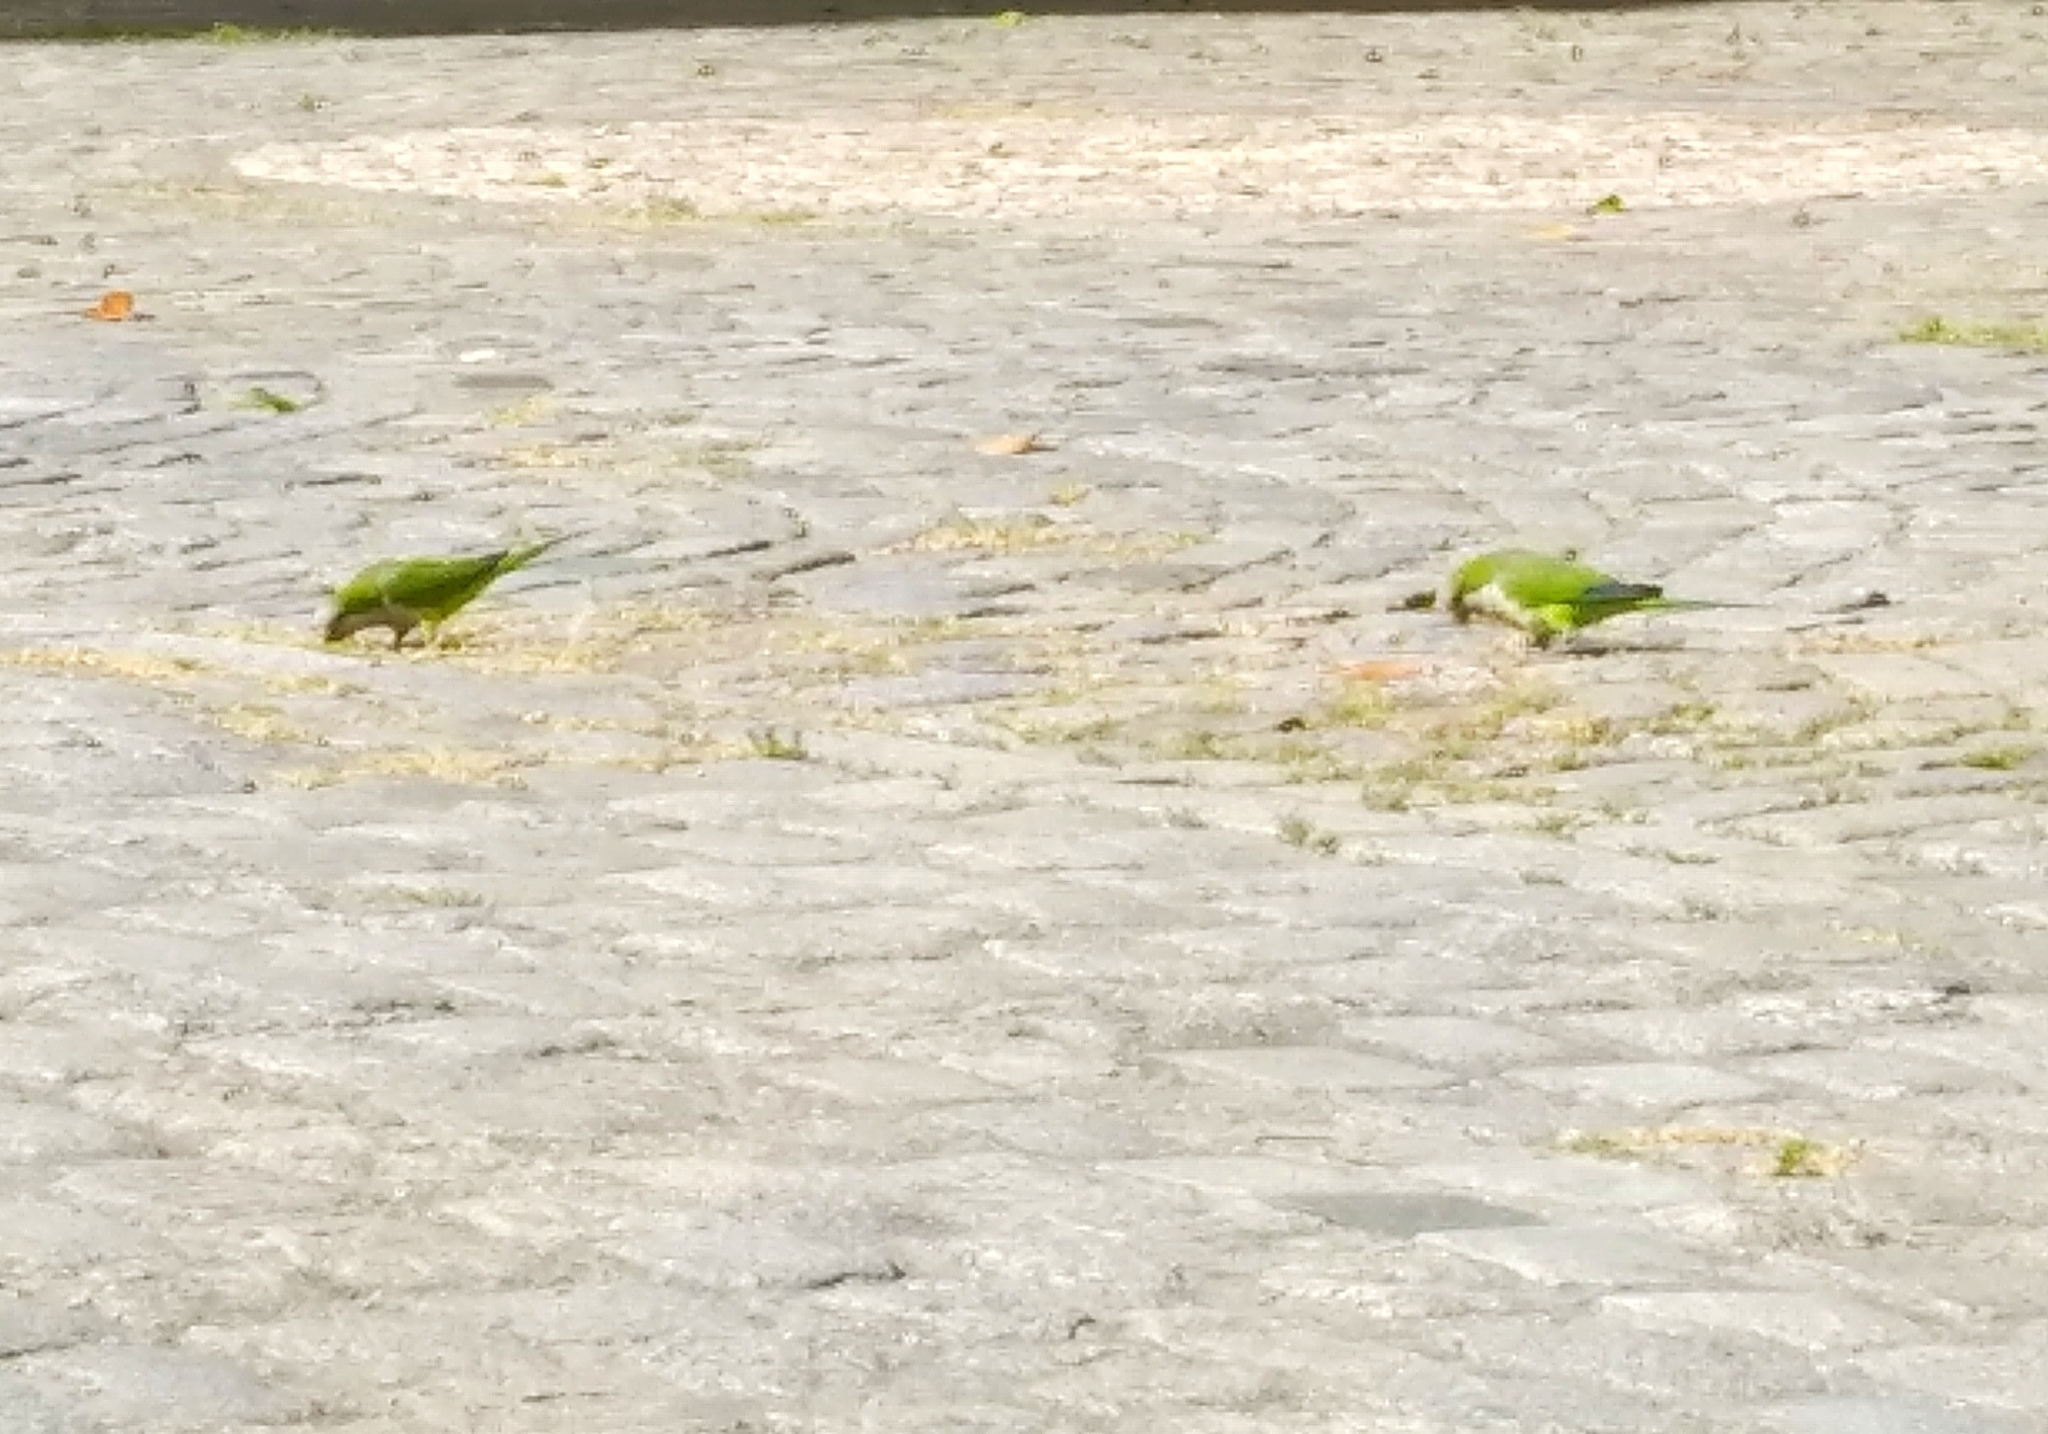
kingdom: Animalia
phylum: Chordata
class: Aves
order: Psittaciformes
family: Psittacidae
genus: Myiopsitta
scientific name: Myiopsitta monachus
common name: Monk parakeet
